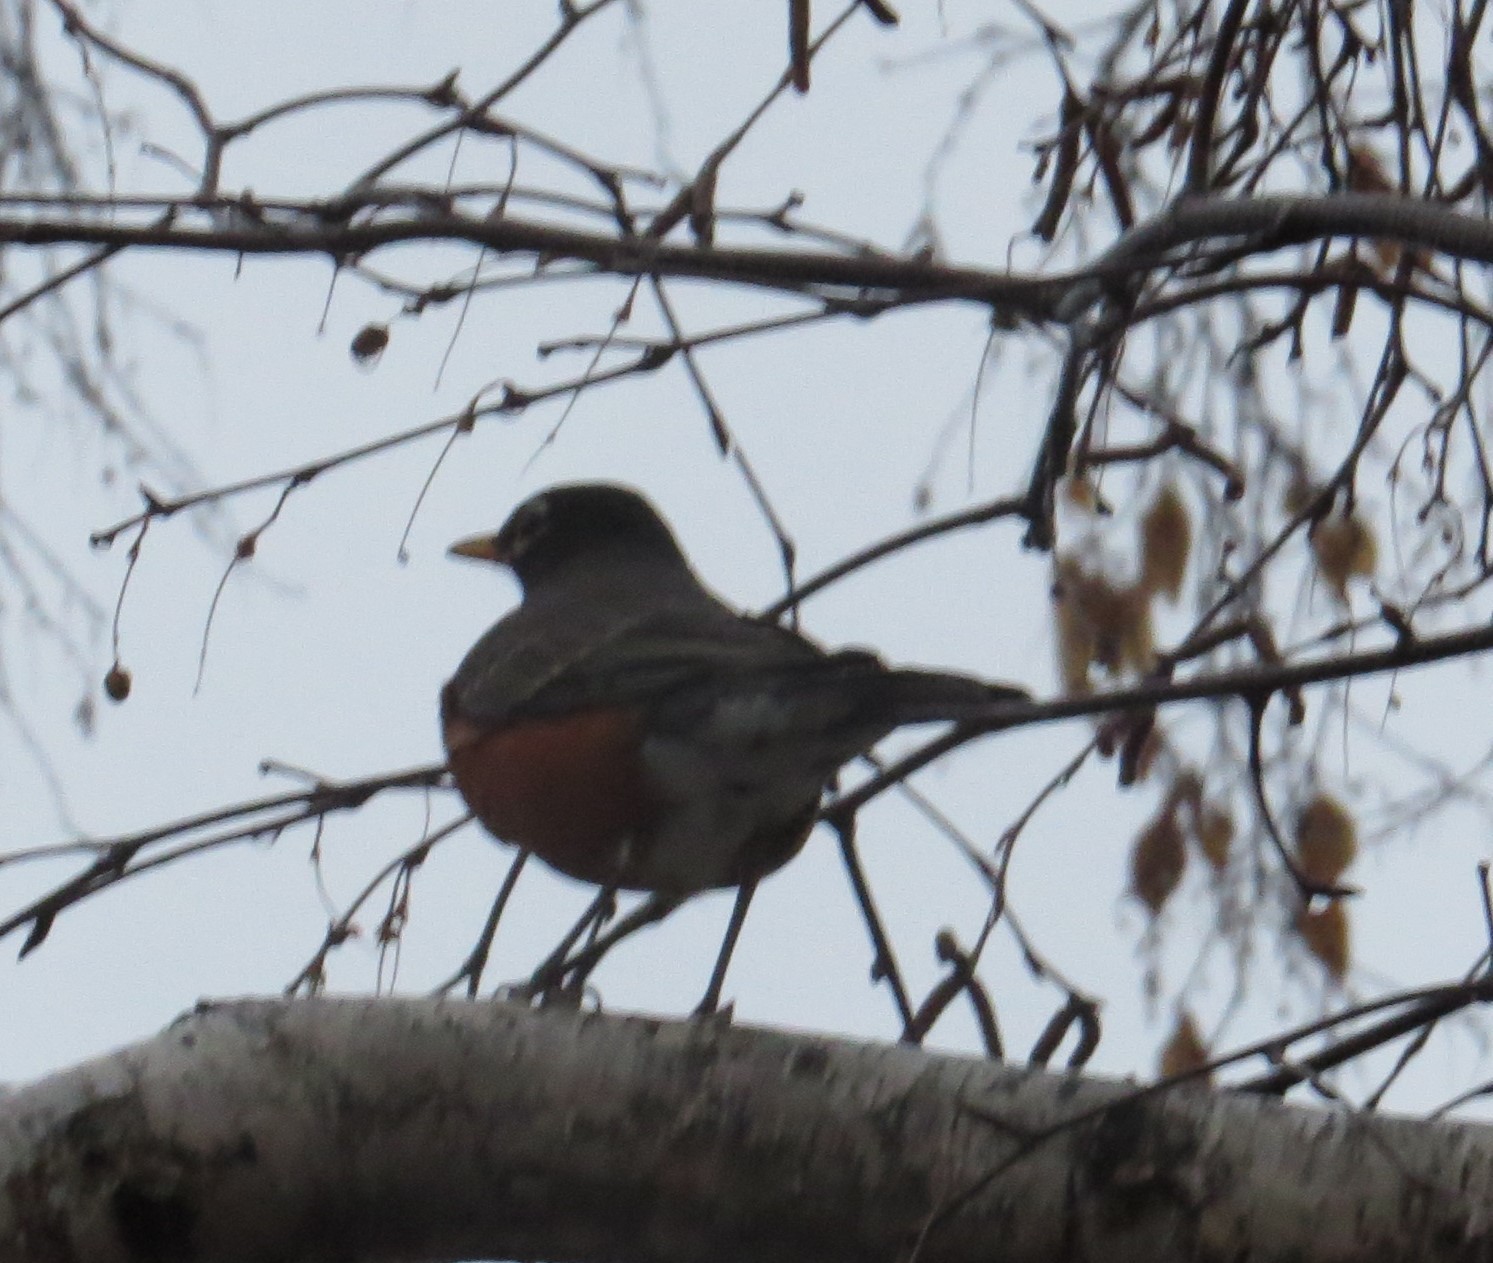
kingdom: Animalia
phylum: Chordata
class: Aves
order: Passeriformes
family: Turdidae
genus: Turdus
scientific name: Turdus migratorius
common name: American robin
